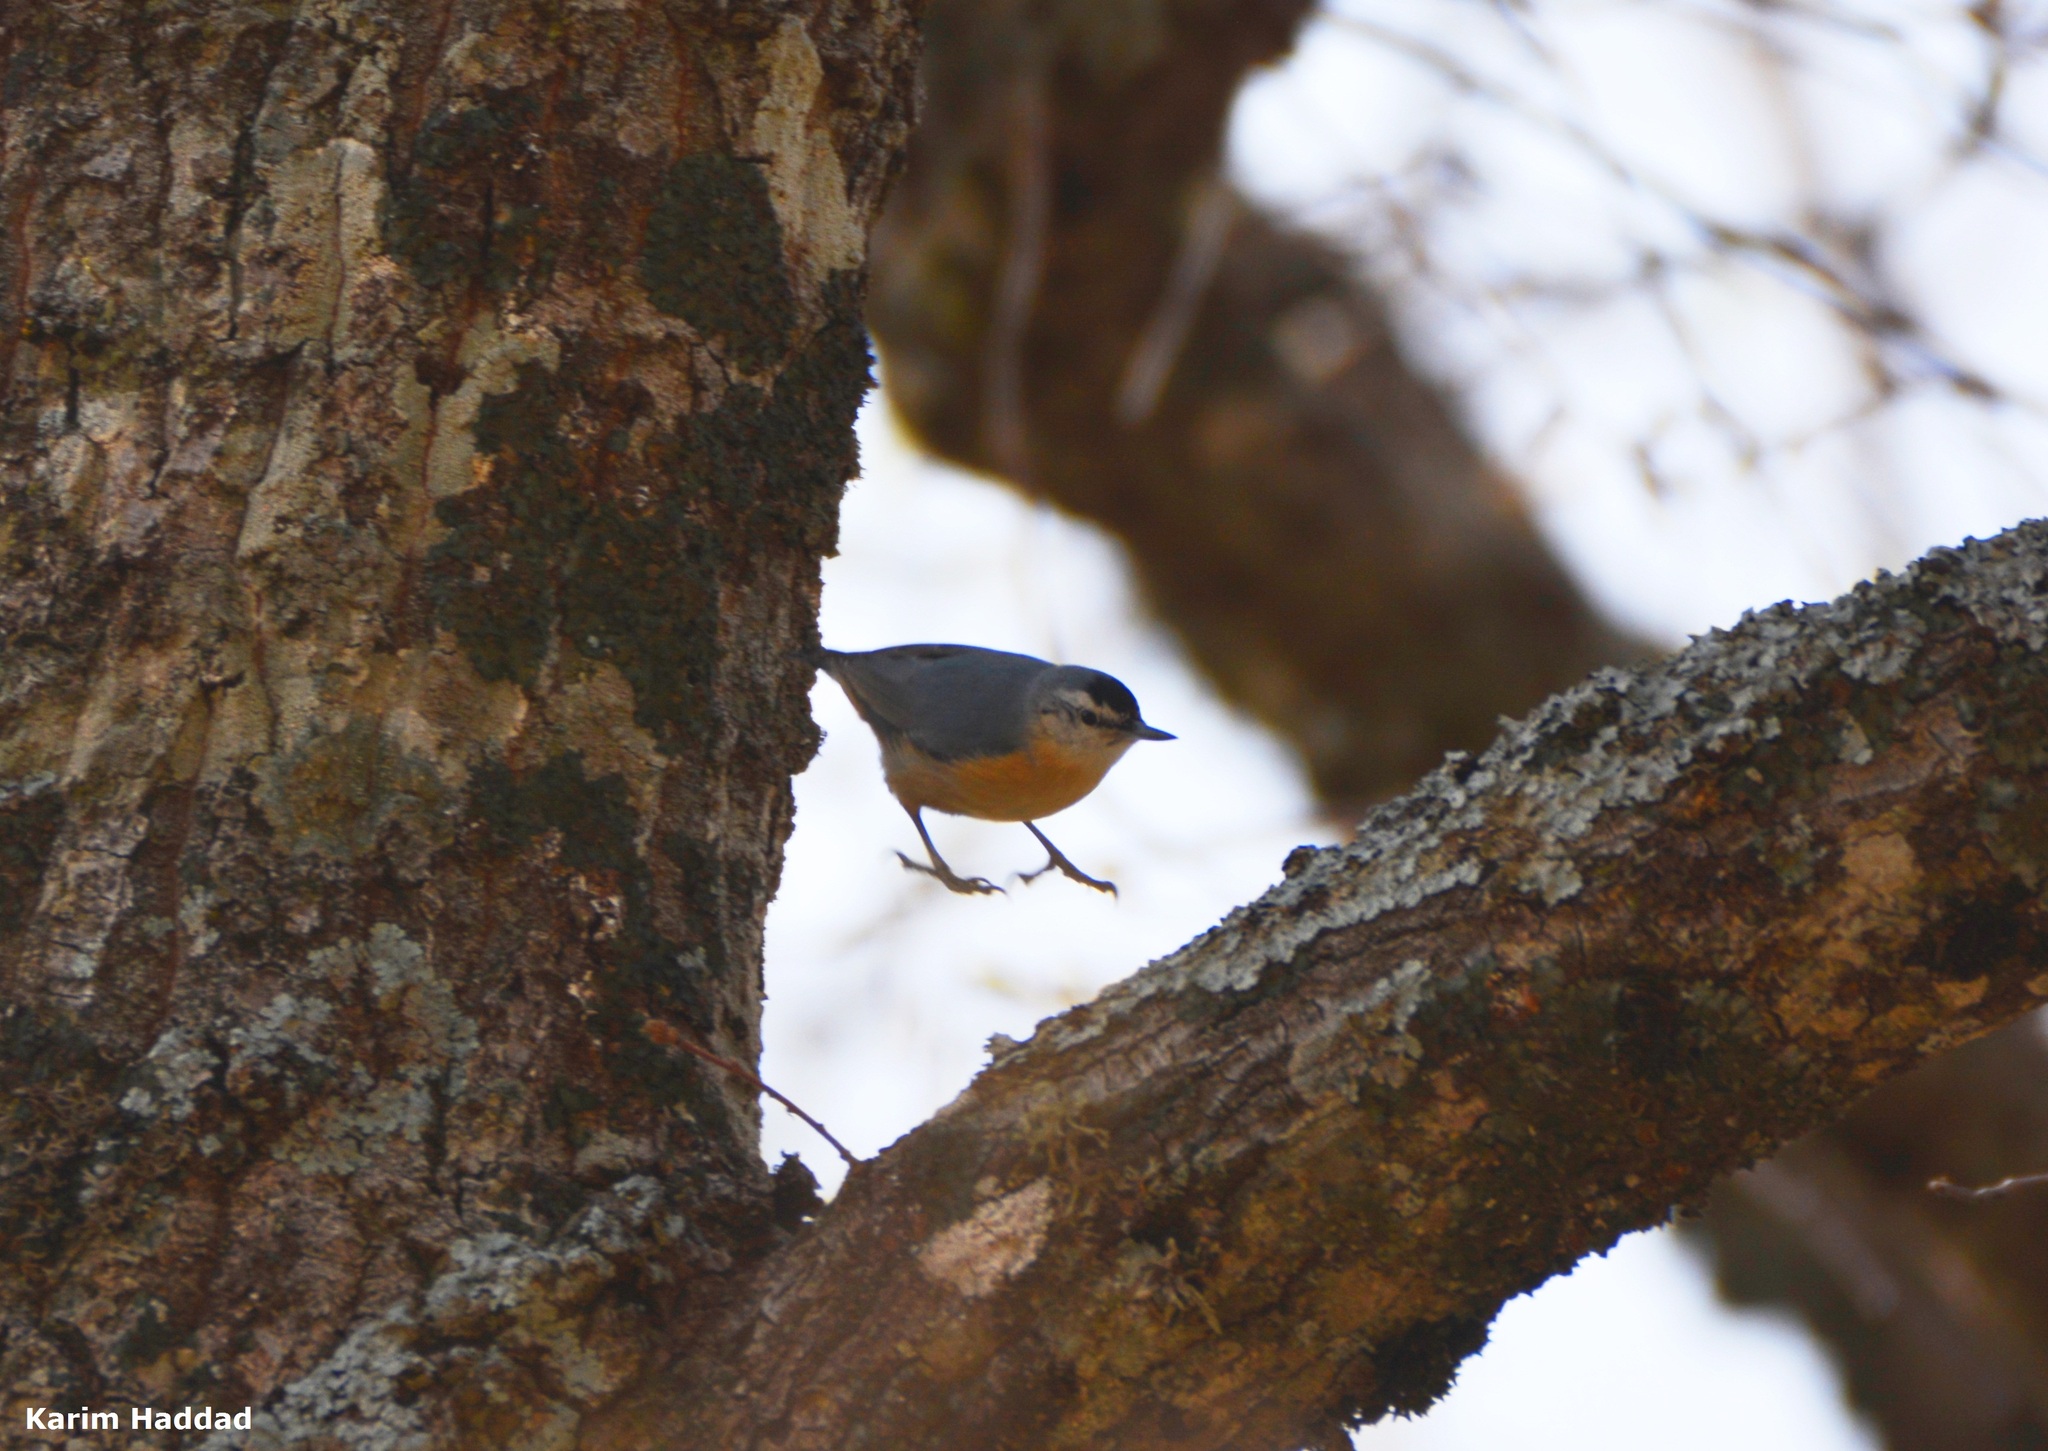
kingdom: Animalia
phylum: Chordata
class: Aves
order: Passeriformes
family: Sittidae
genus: Sitta
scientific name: Sitta ledanti
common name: Algerian nuthatch
